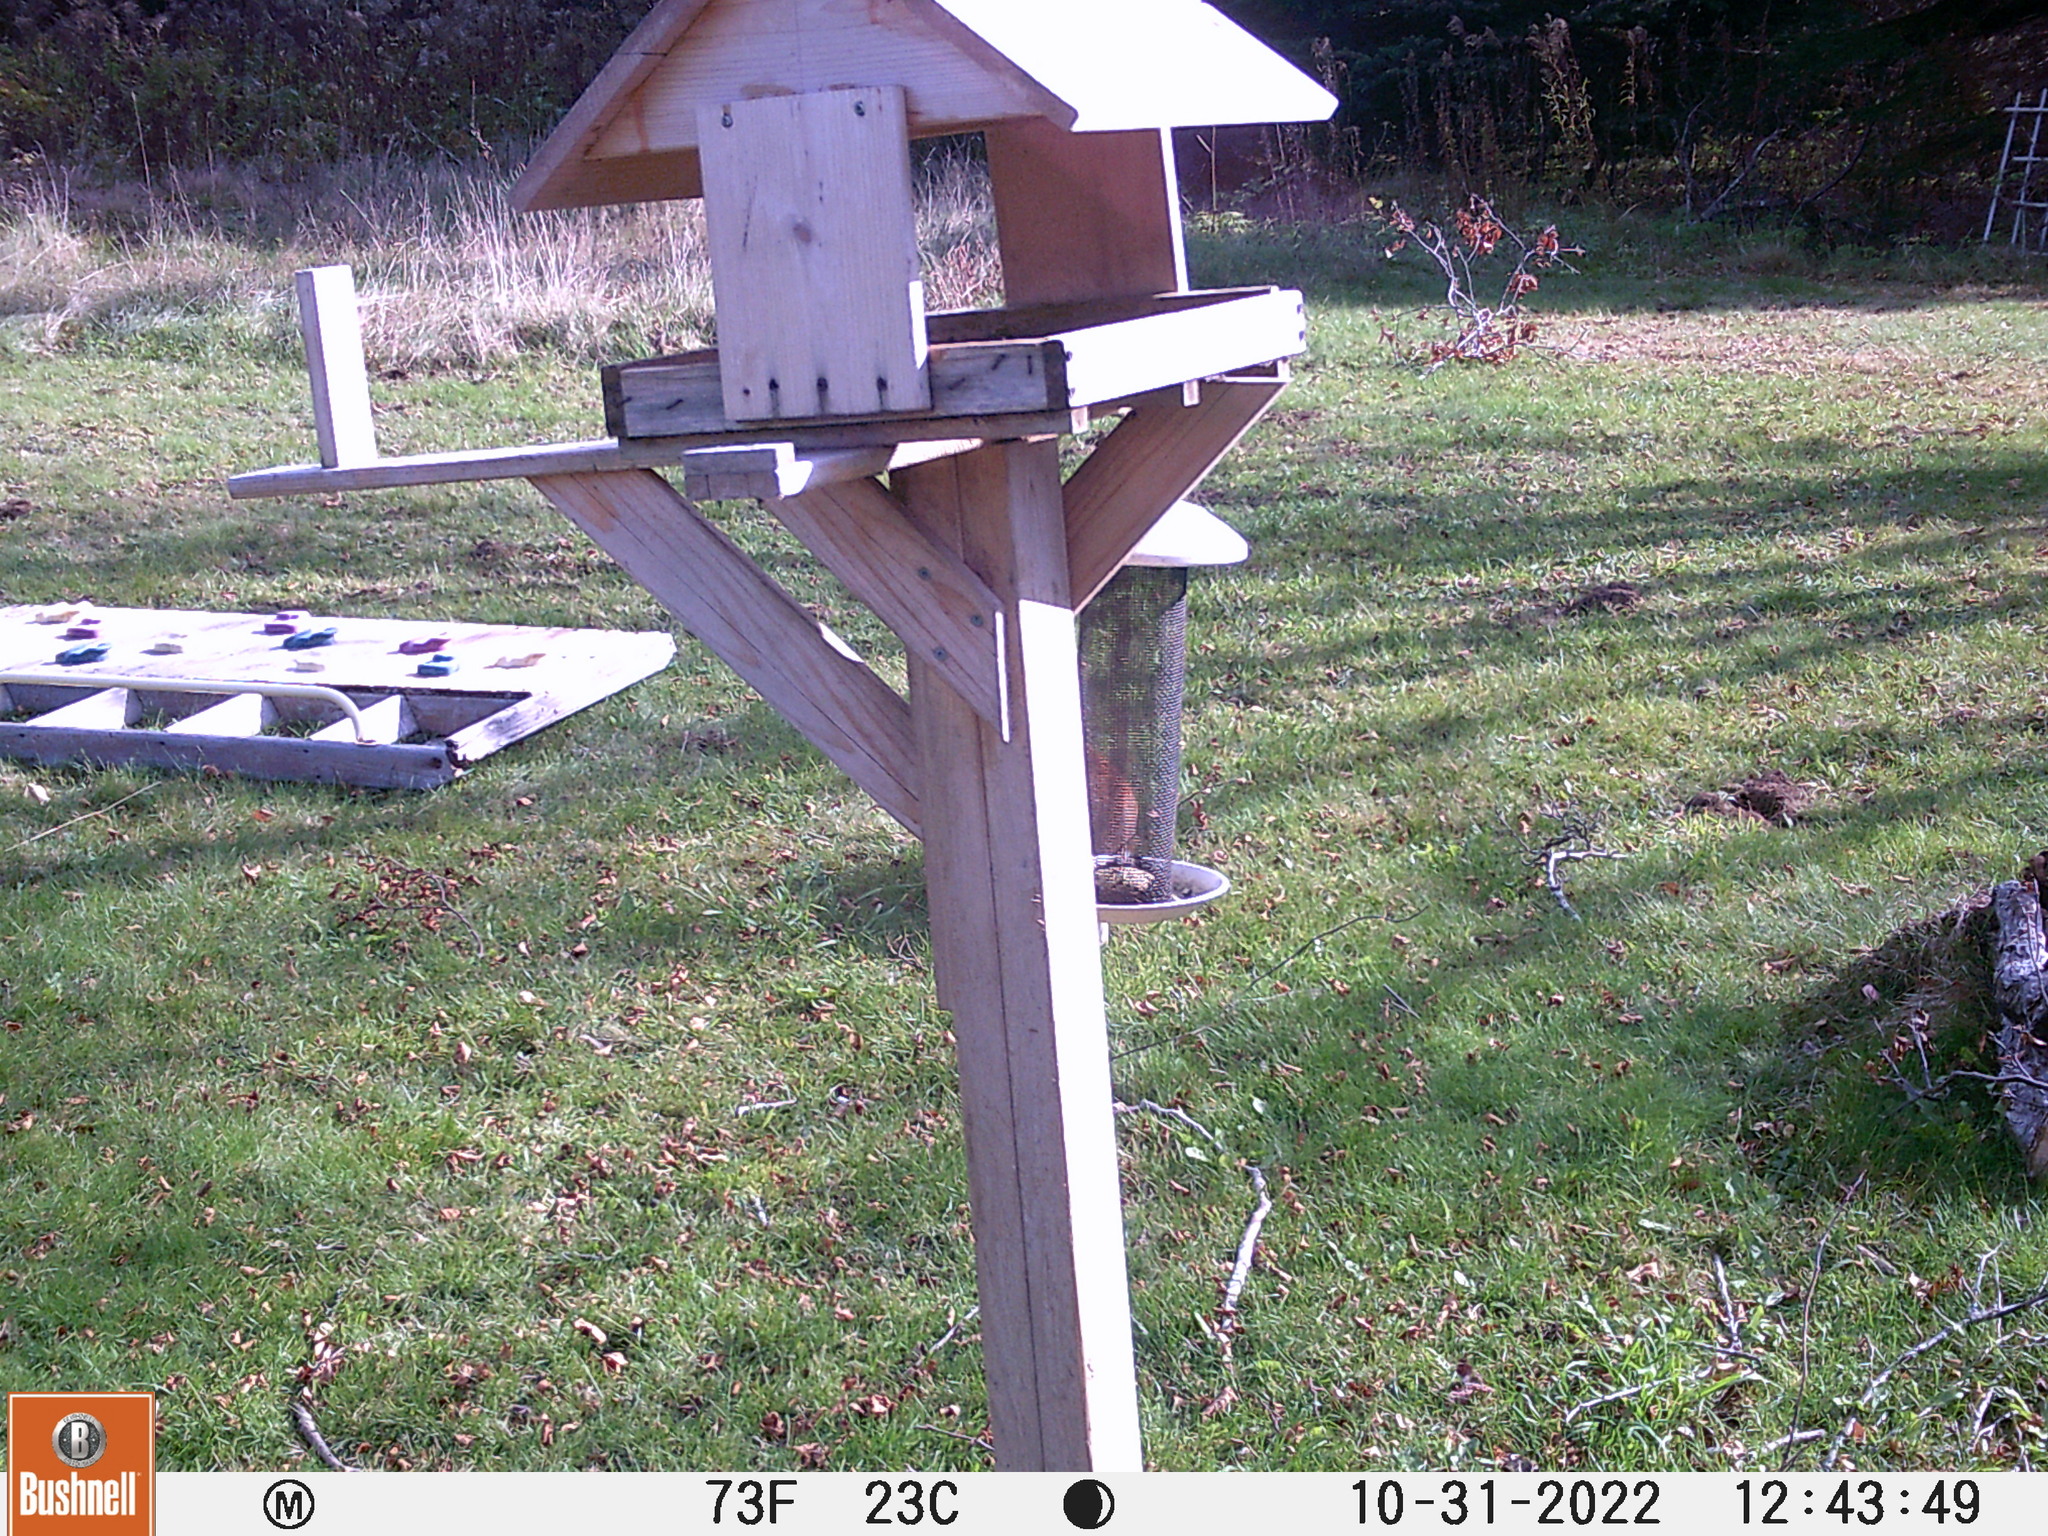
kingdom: Animalia
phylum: Chordata
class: Aves
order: Passeriformes
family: Fringillidae
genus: Haemorhous
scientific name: Haemorhous purpureus
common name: Purple finch
